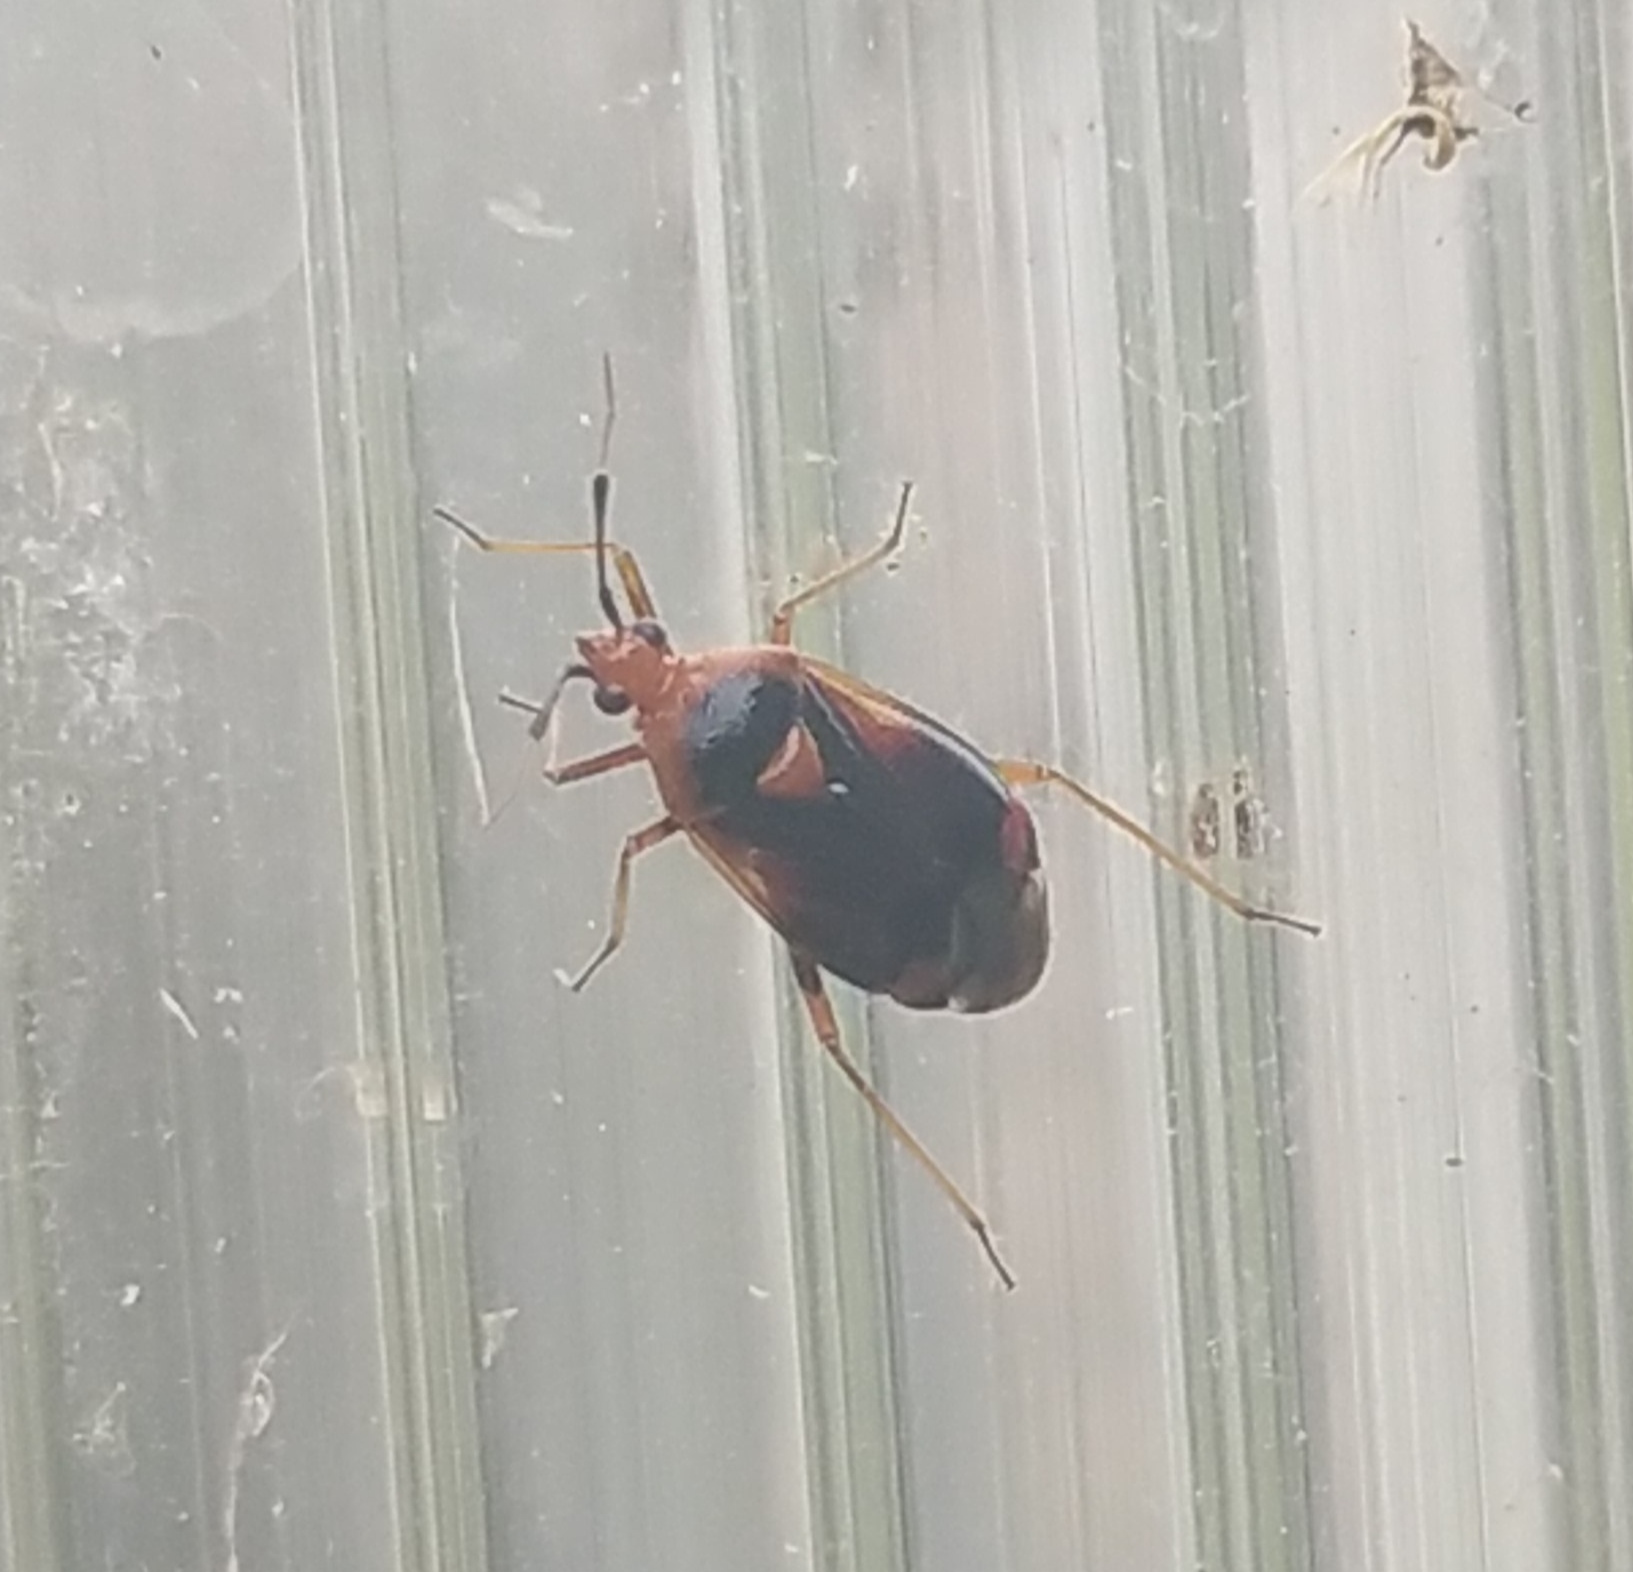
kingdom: Animalia
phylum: Arthropoda
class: Insecta
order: Hemiptera
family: Miridae
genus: Deraeocoris
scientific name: Deraeocoris ruber
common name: Plant bug
